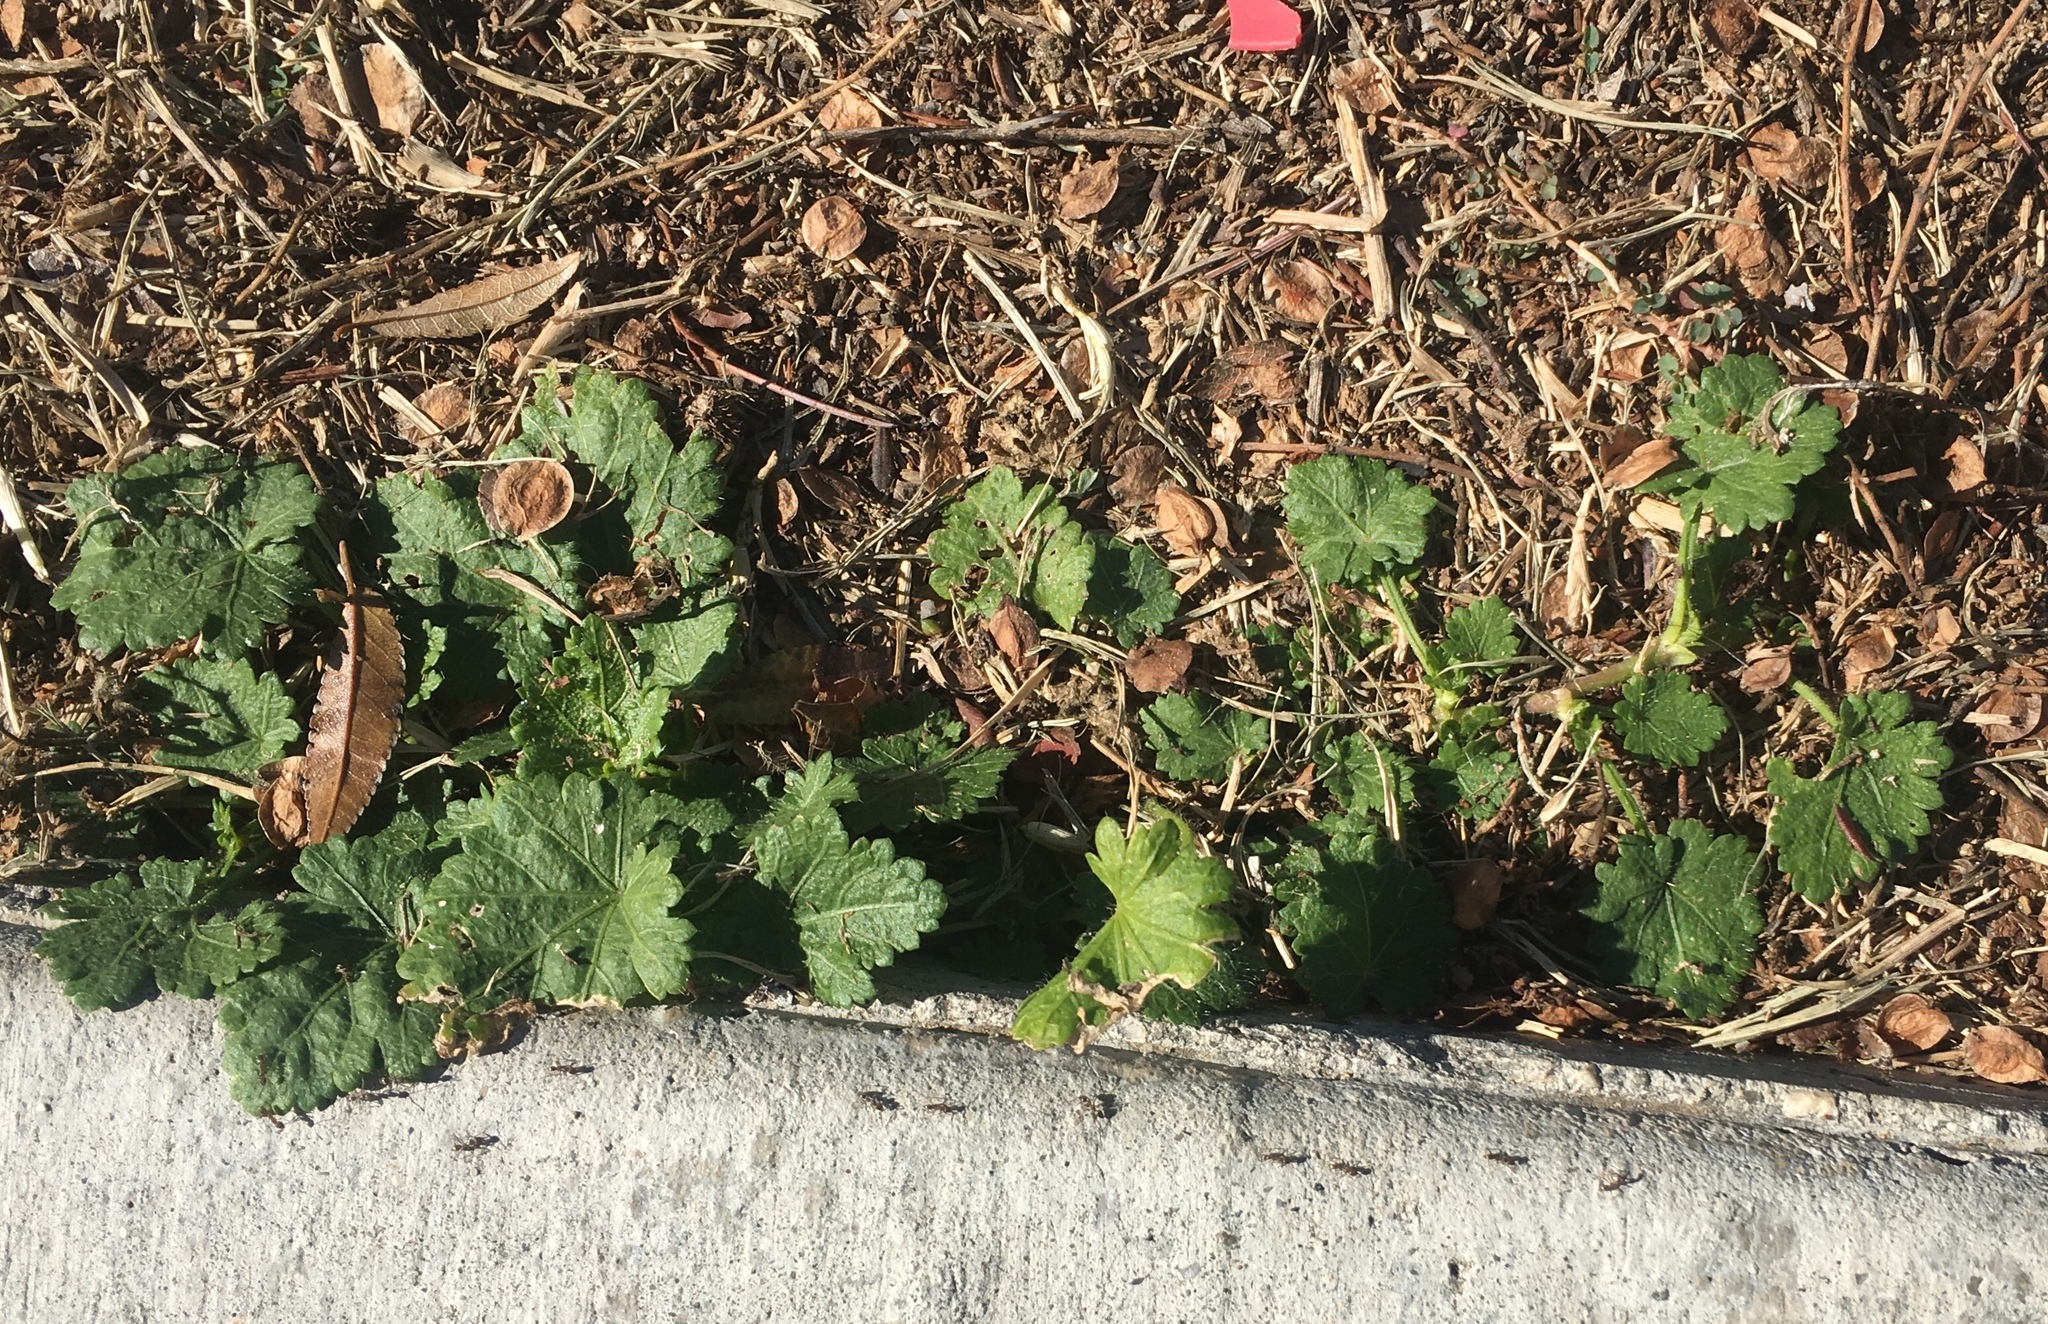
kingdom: Plantae
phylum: Tracheophyta
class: Magnoliopsida
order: Malvales
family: Malvaceae
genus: Modiola
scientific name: Modiola caroliniana
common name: Carolina bristlemallow
